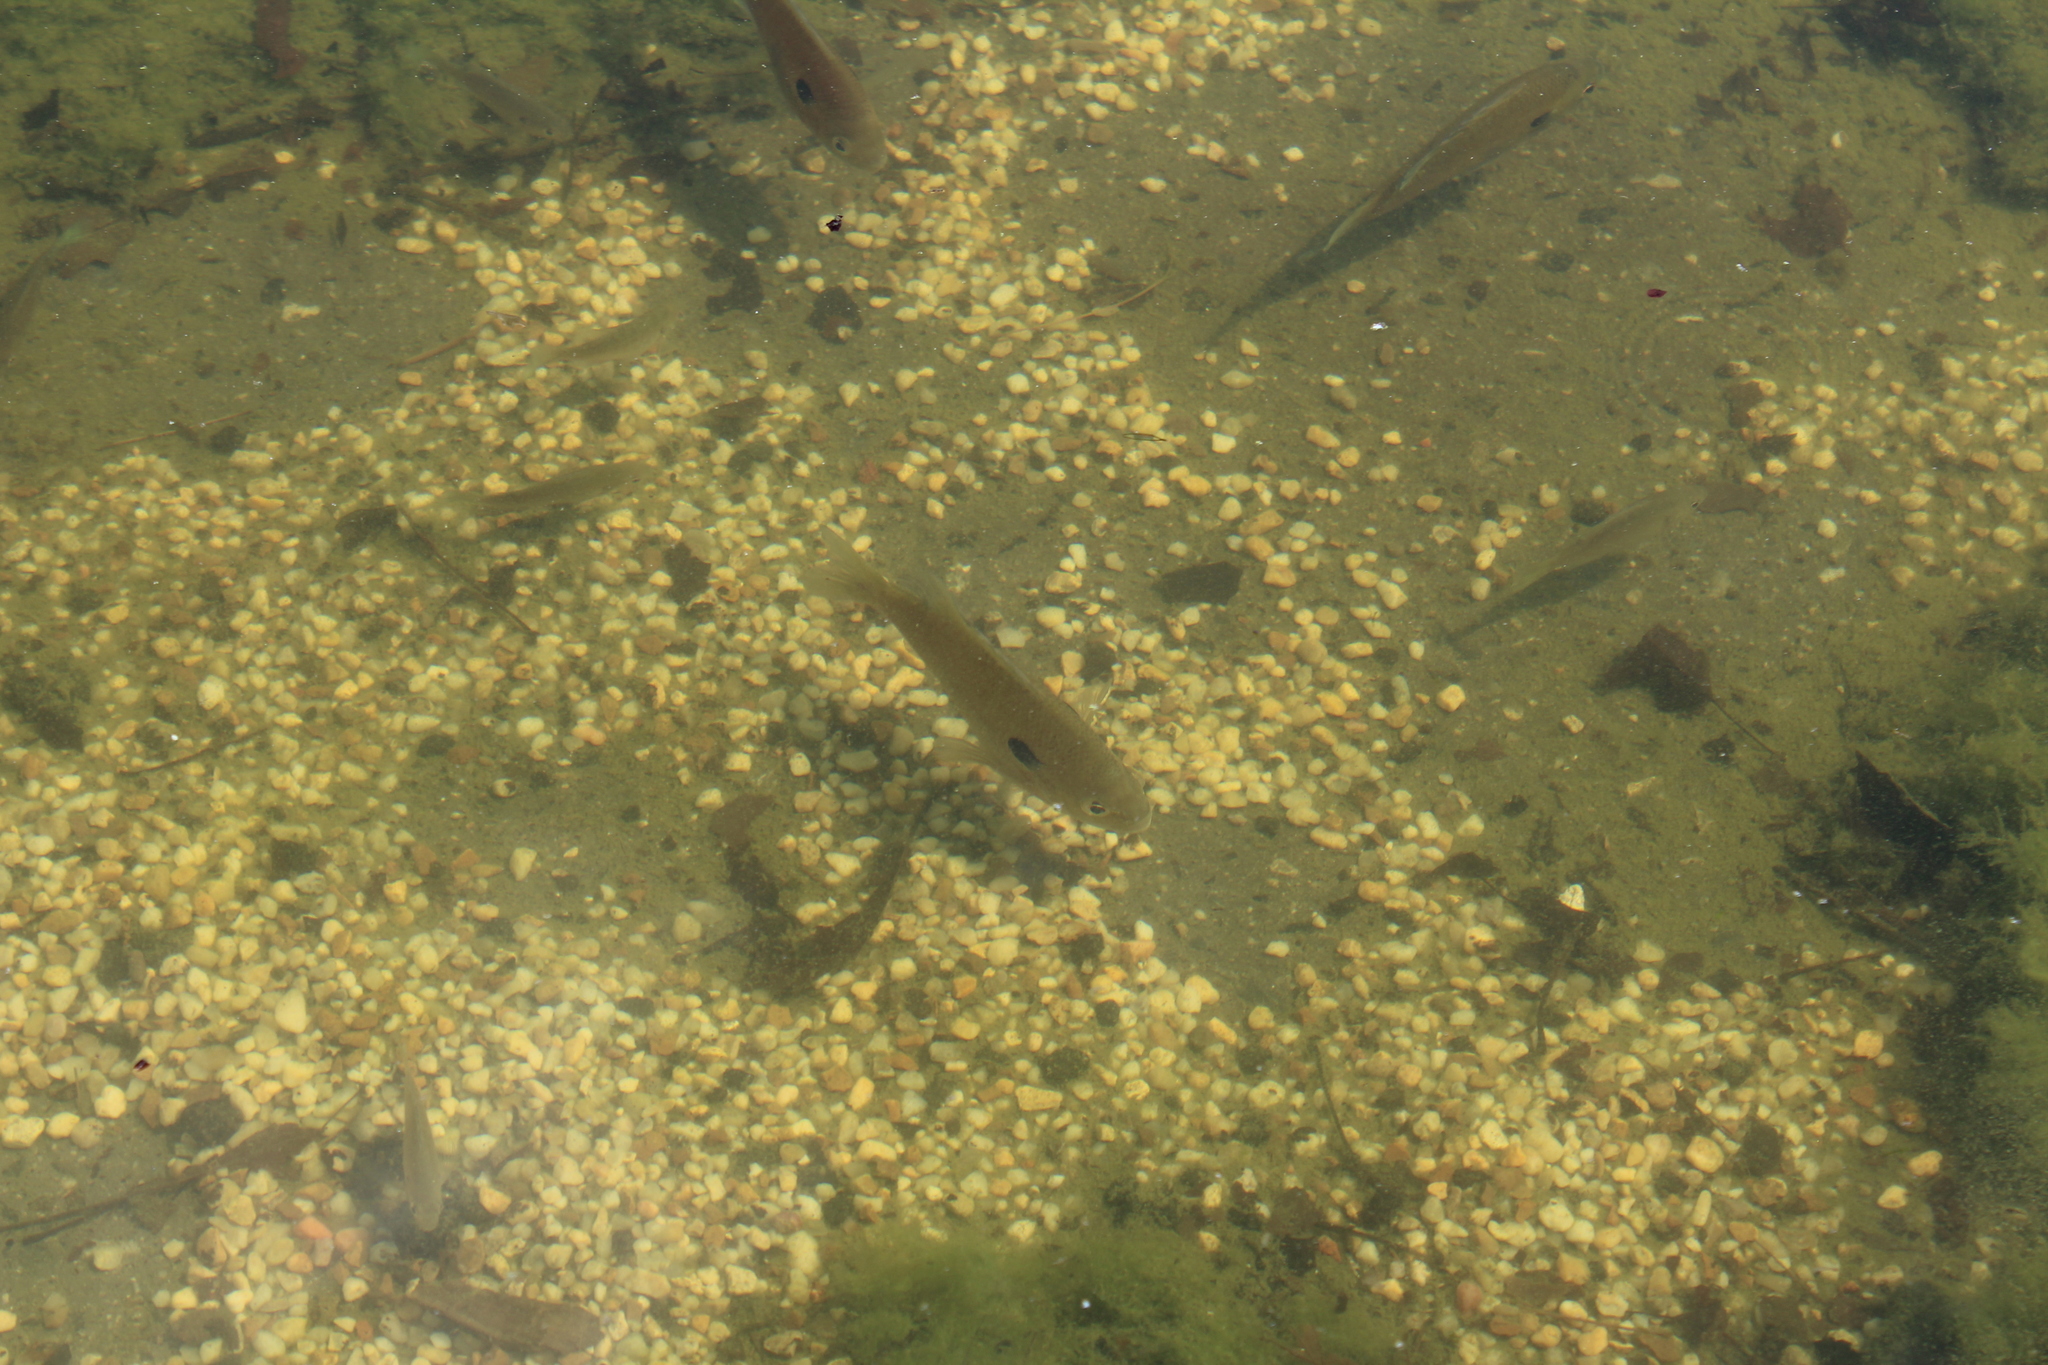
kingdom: Animalia
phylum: Chordata
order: Perciformes
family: Centrarchidae
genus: Lepomis
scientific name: Lepomis macrochirus
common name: Bluegill
